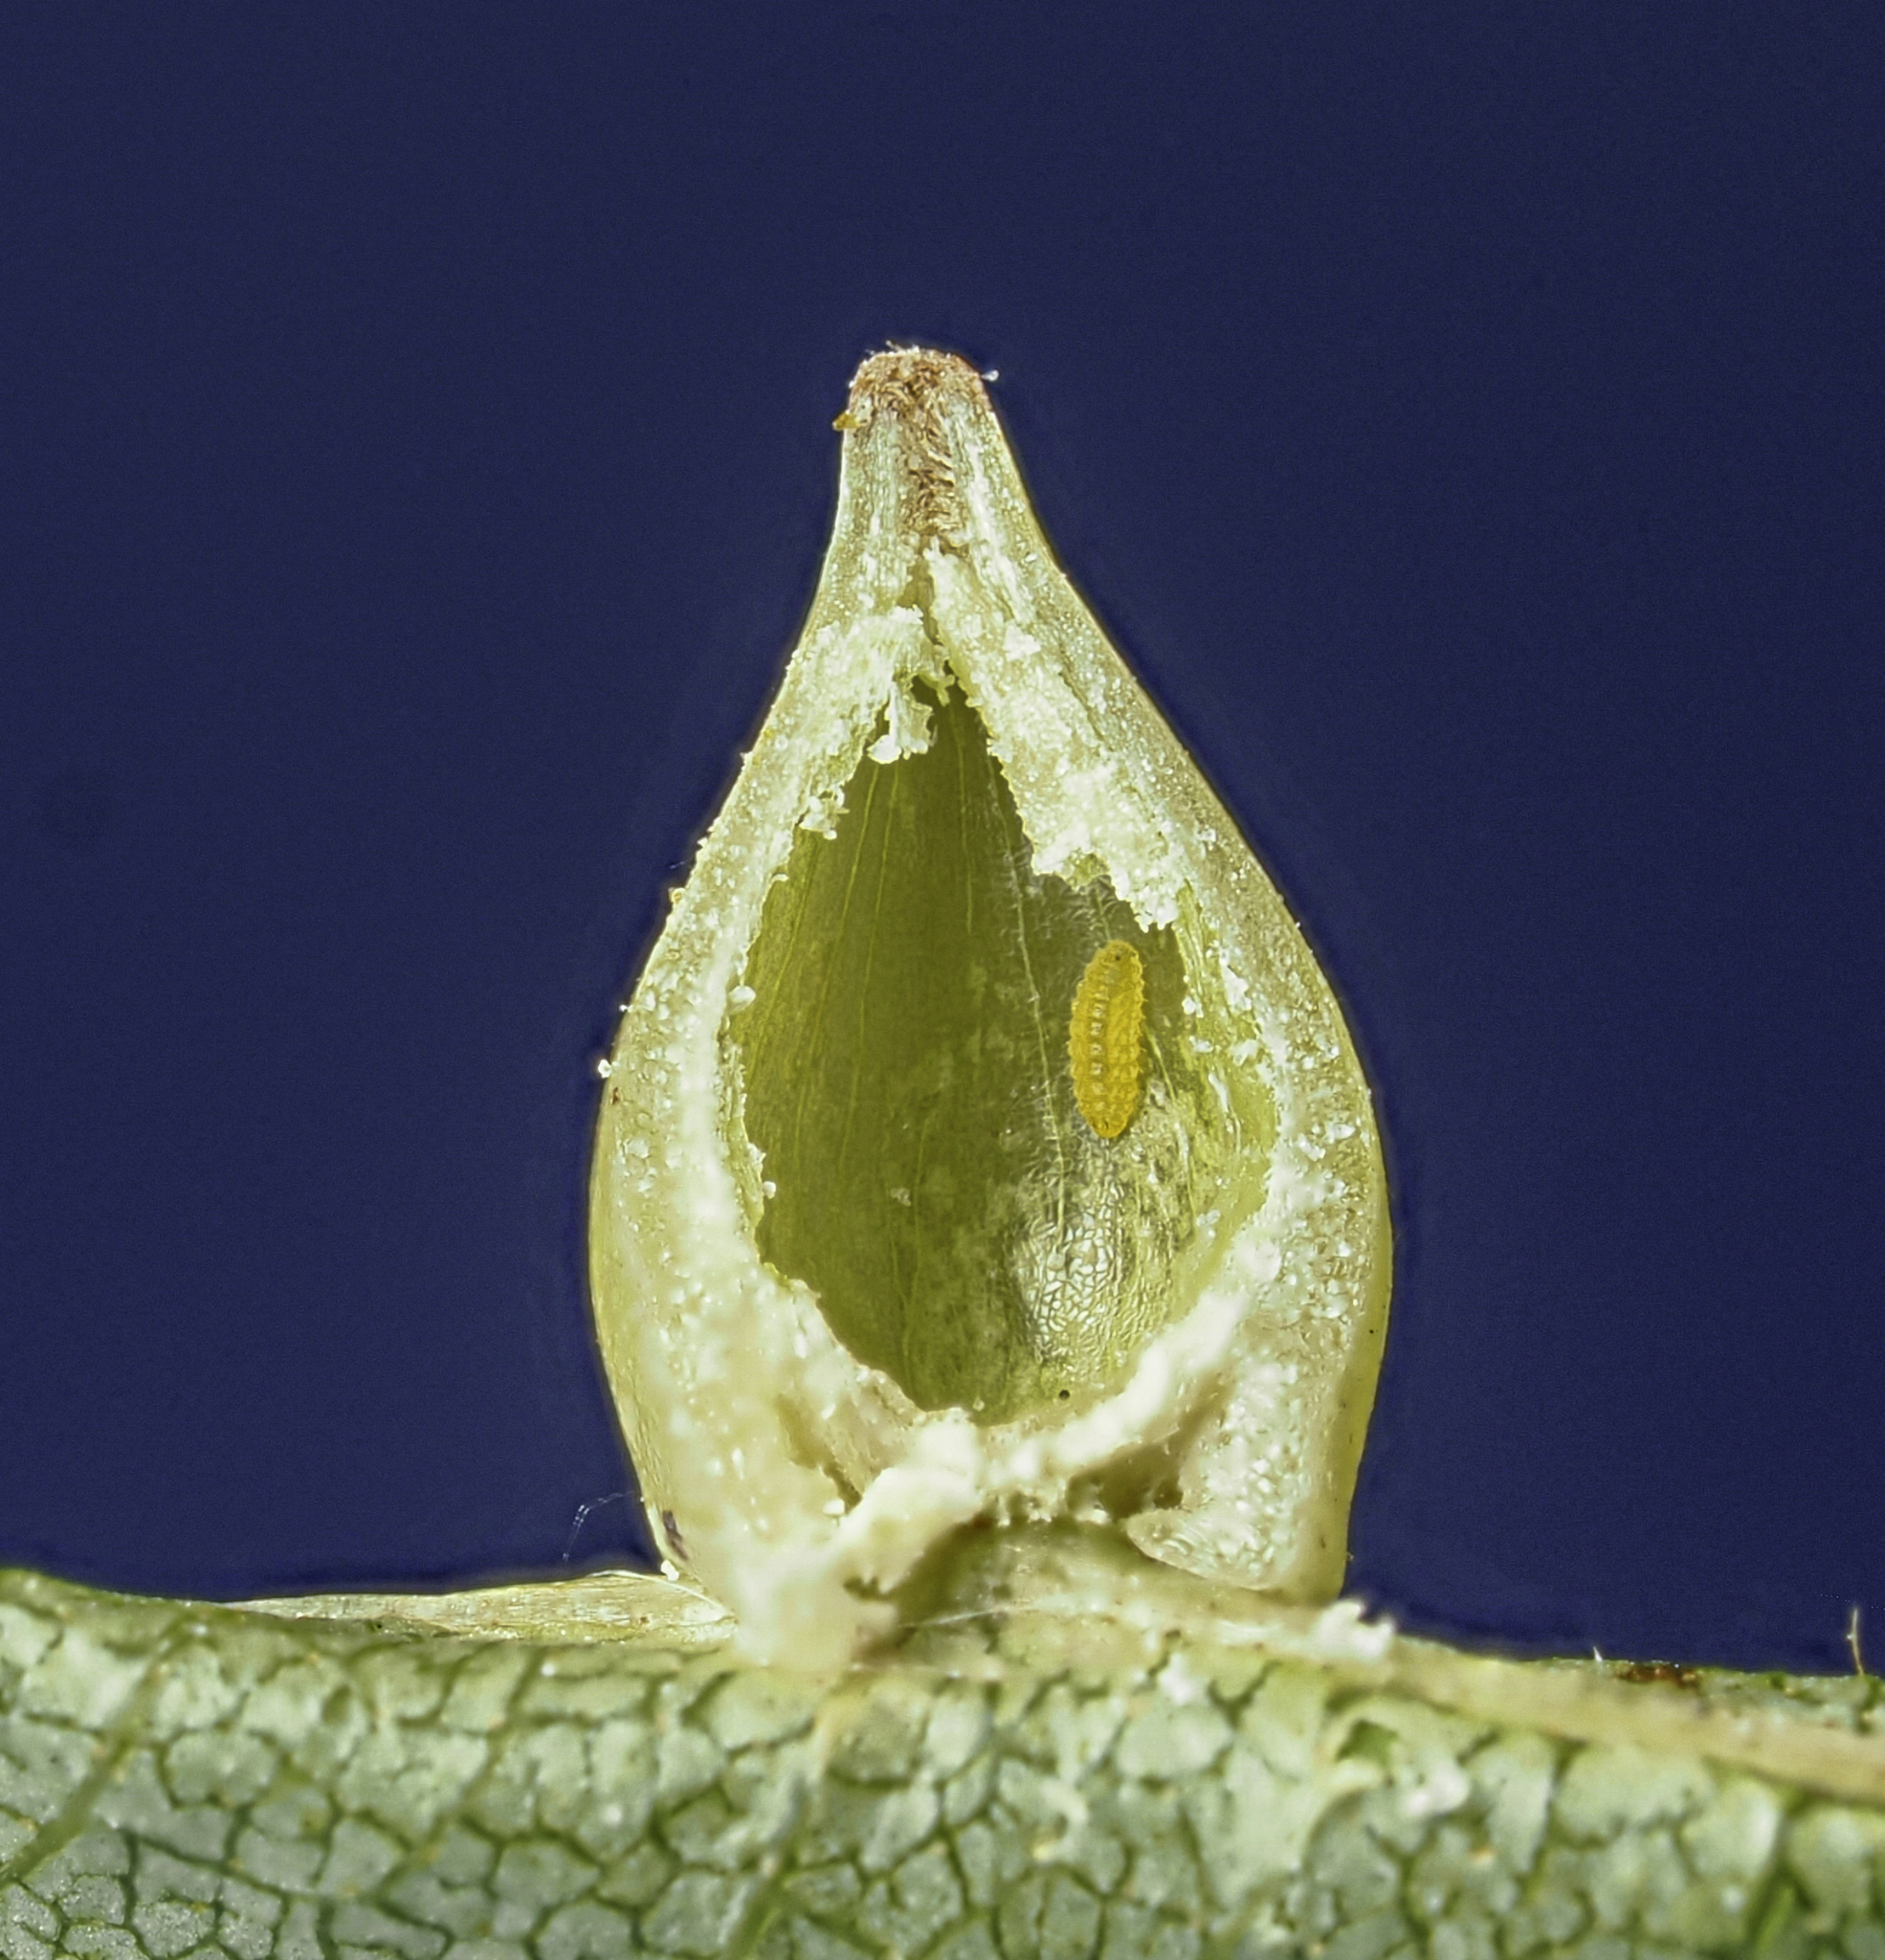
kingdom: Animalia
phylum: Arthropoda
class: Insecta
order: Diptera
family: Cecidomyiidae
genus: Caryomyia
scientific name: Caryomyia caryaecola
